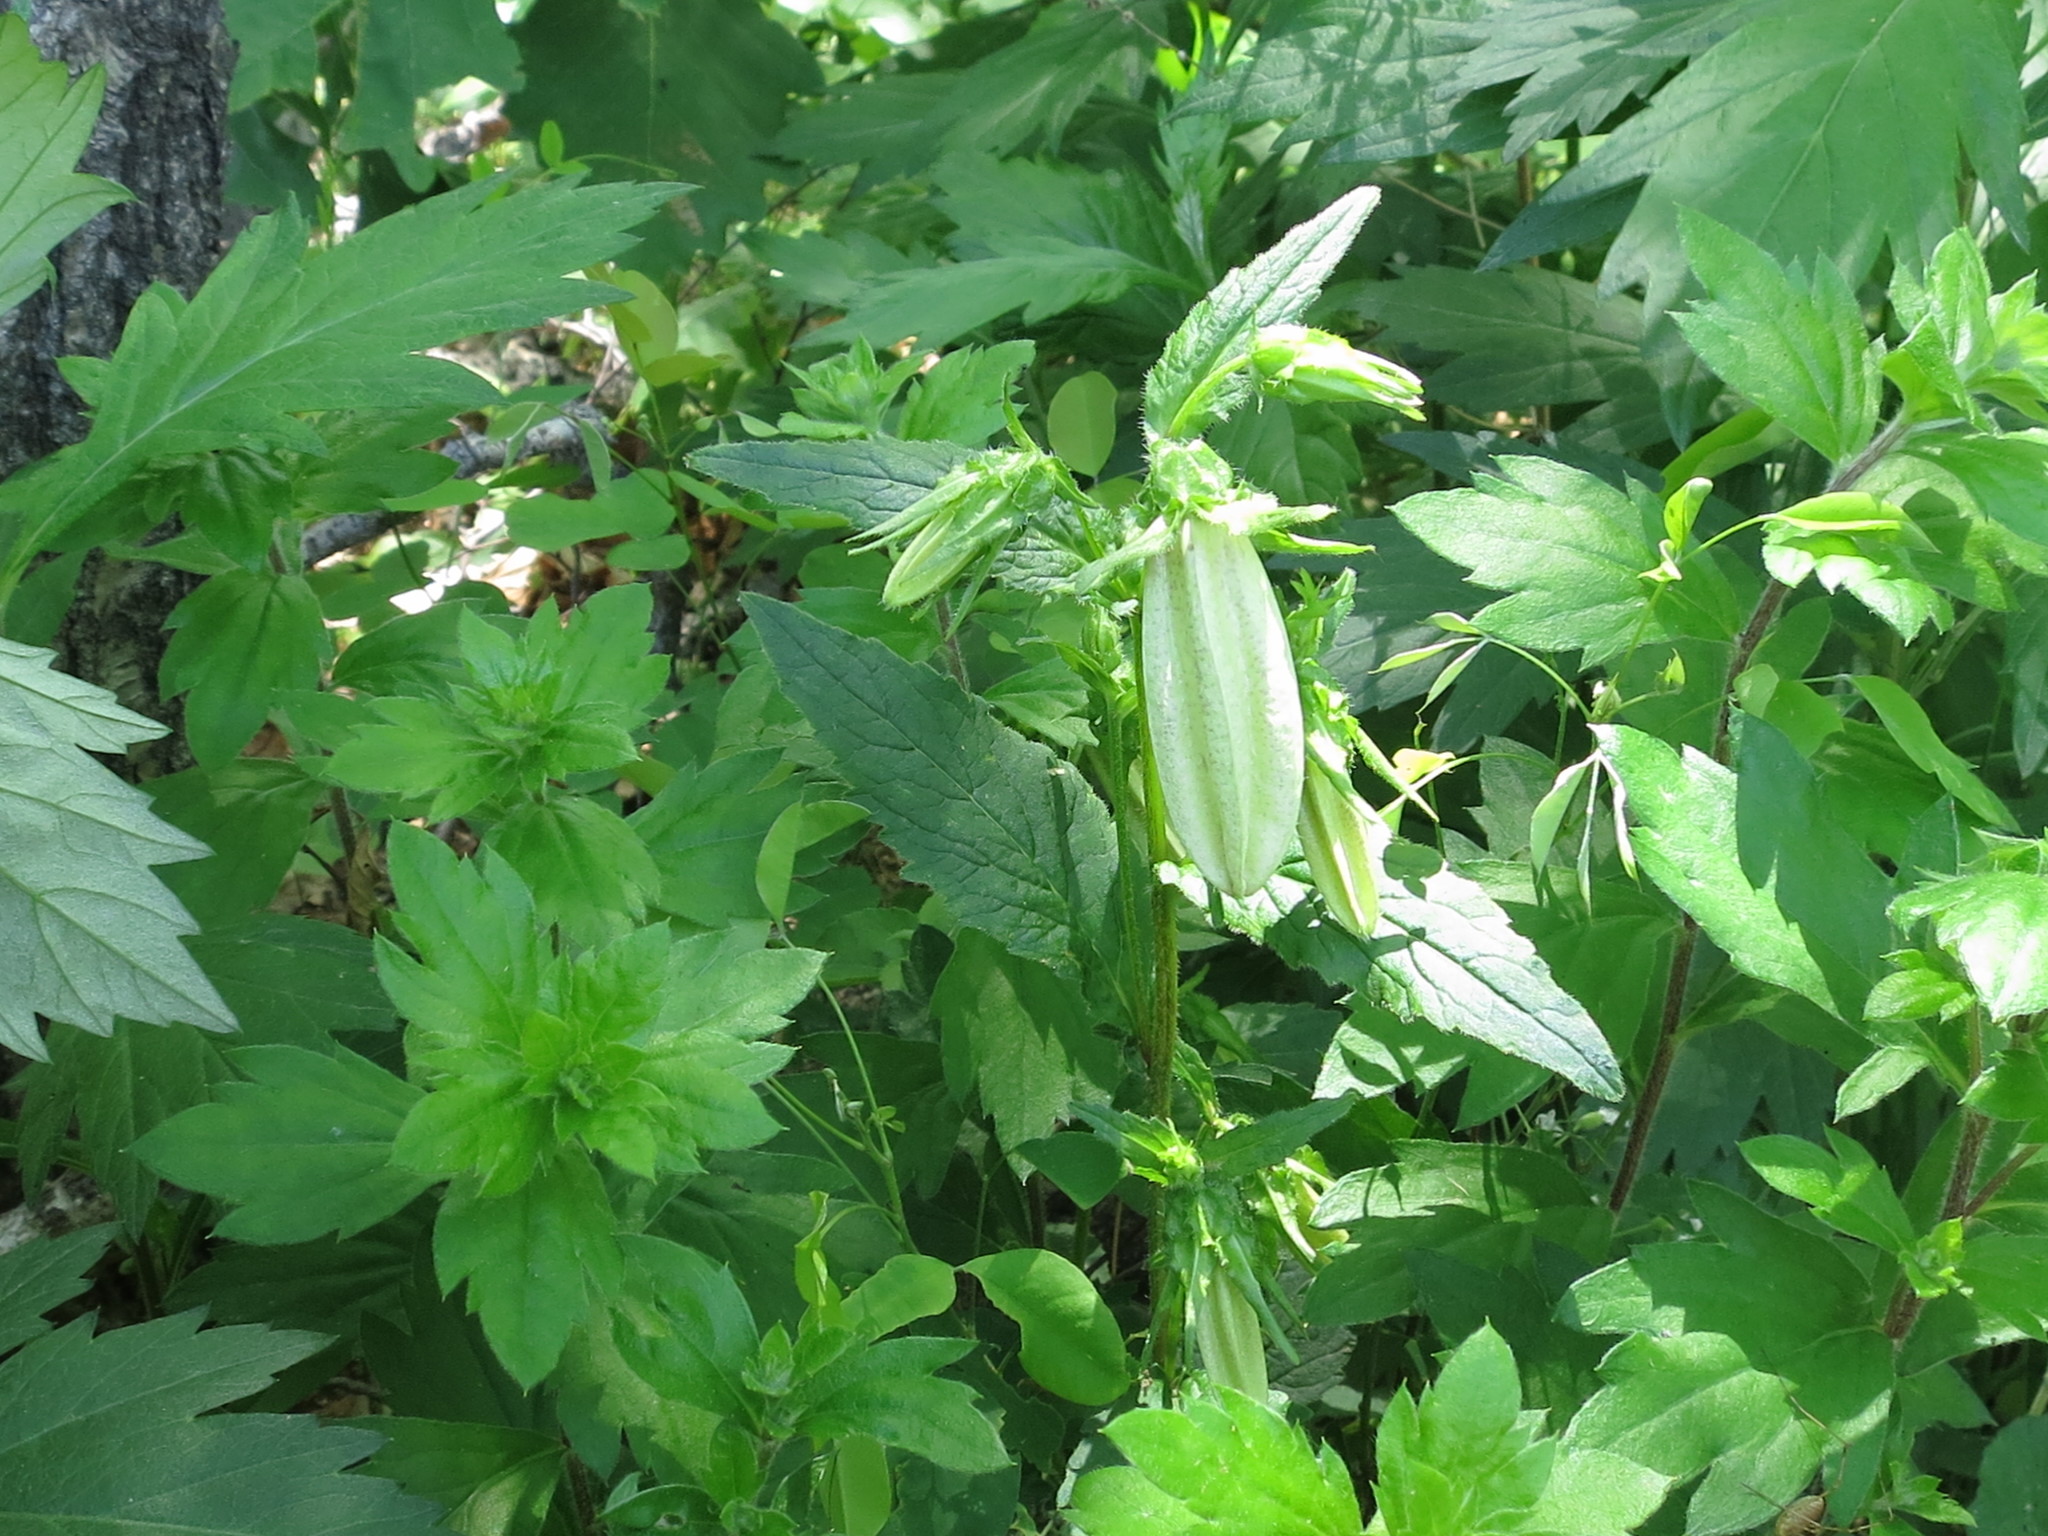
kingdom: Plantae
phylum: Tracheophyta
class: Magnoliopsida
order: Asterales
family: Campanulaceae
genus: Campanula
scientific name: Campanula punctata
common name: Spotted bellflower
